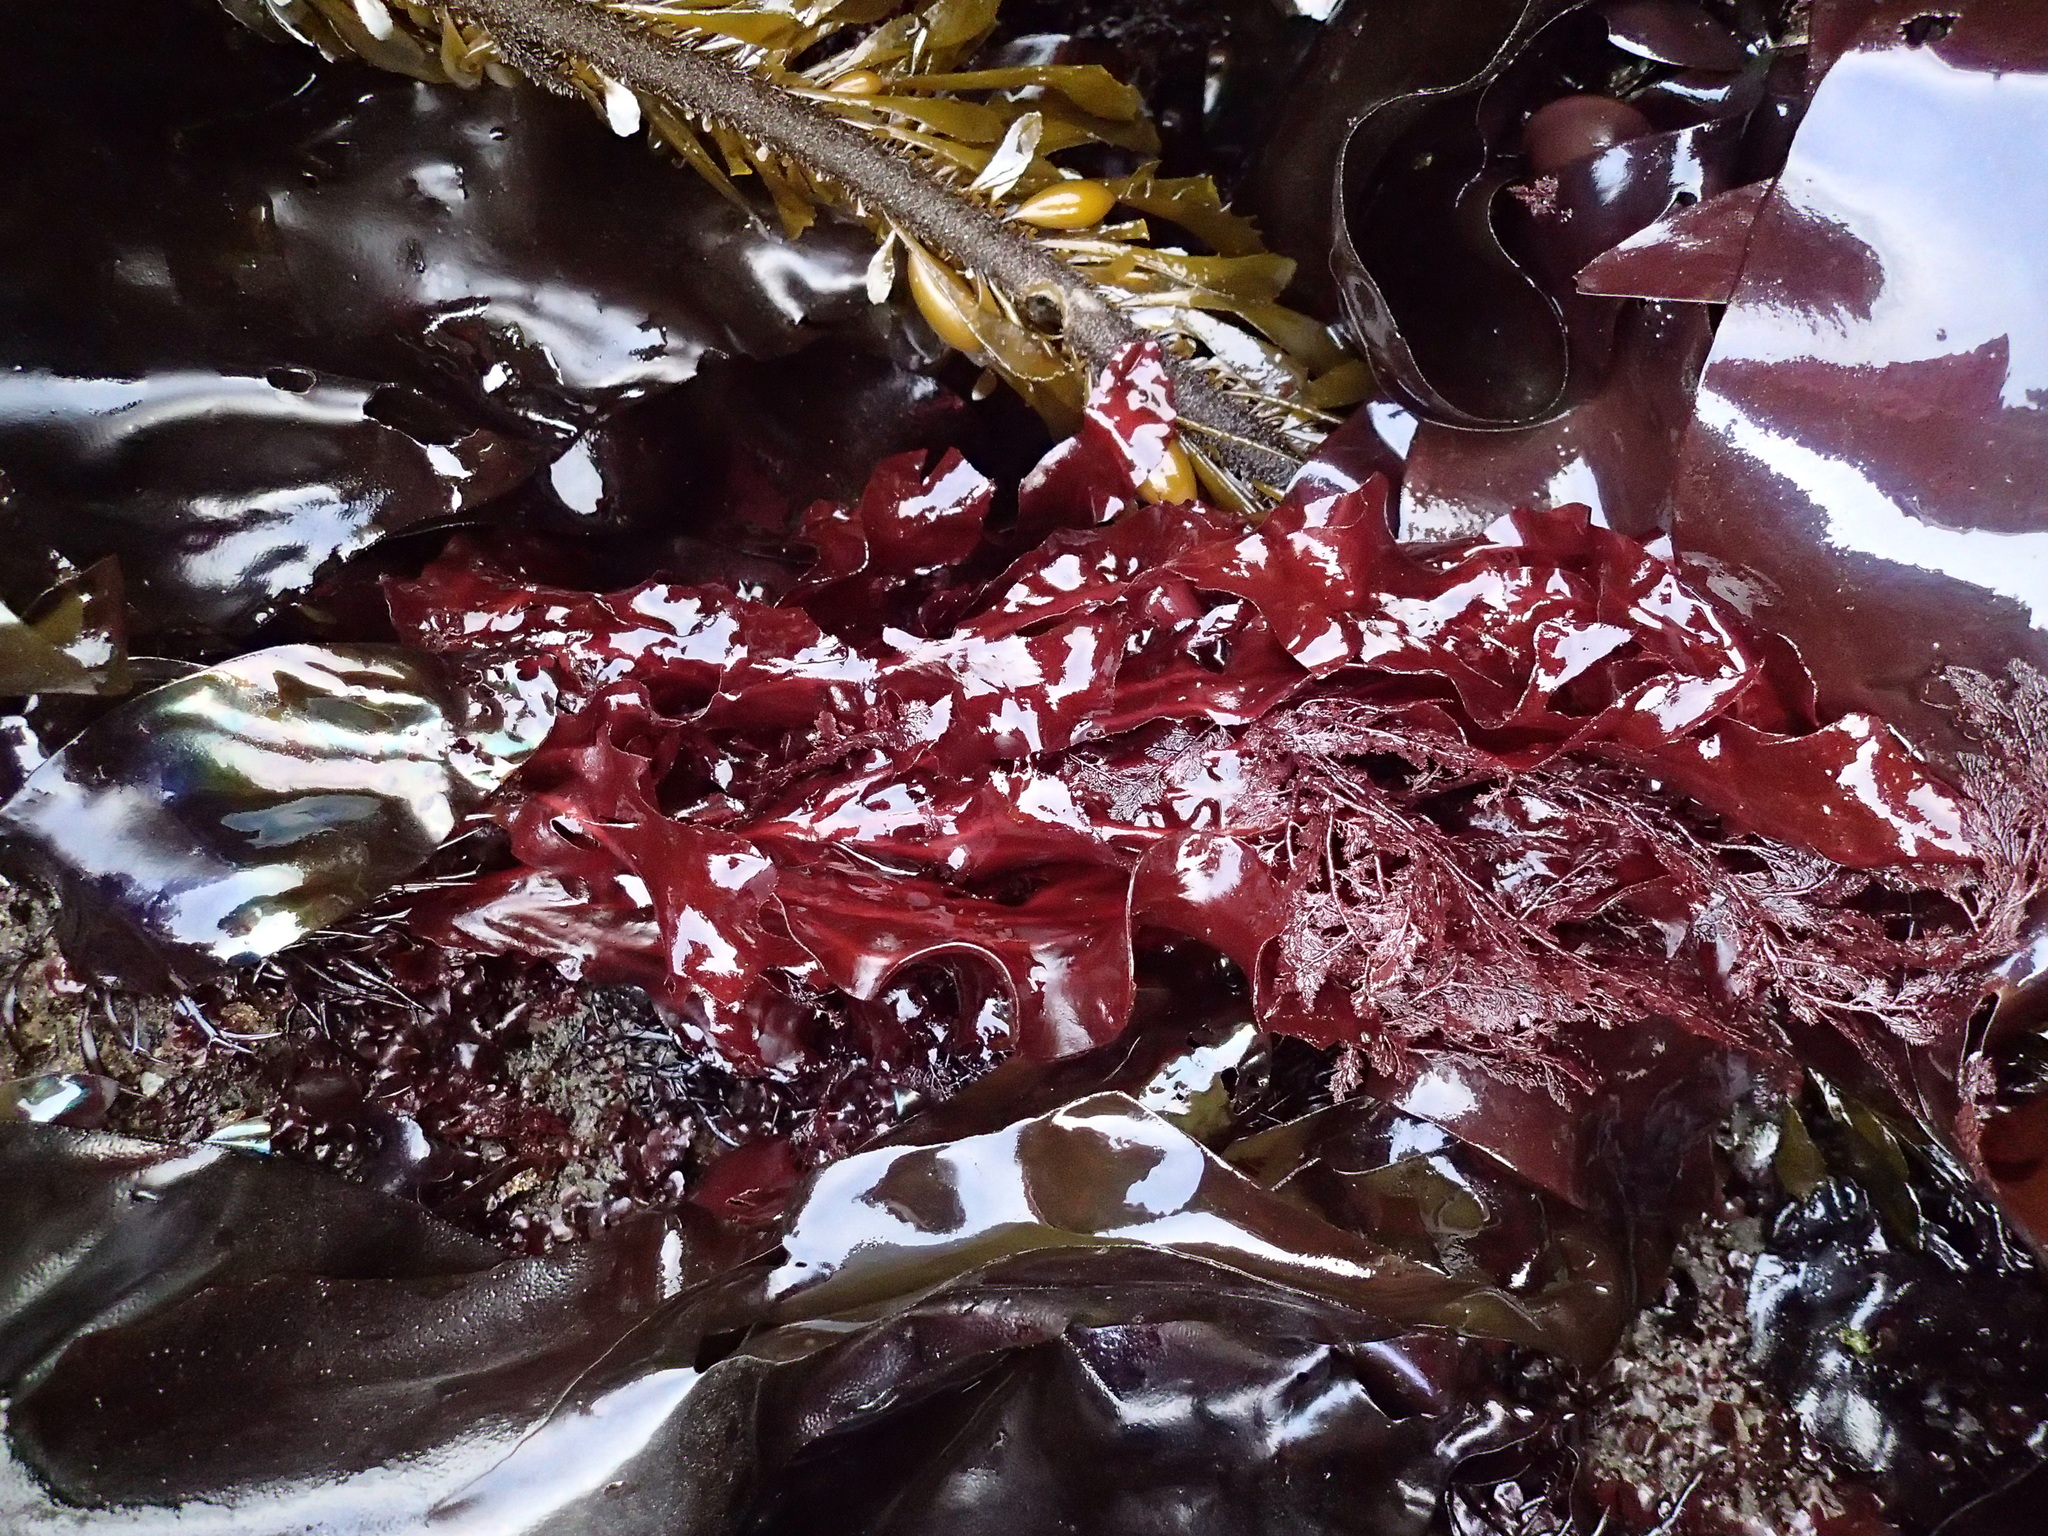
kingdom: Plantae
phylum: Rhodophyta
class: Florideophyceae
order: Gigartinales
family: Kallymeniaceae
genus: Erythrophyllum
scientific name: Erythrophyllum delesserioides
